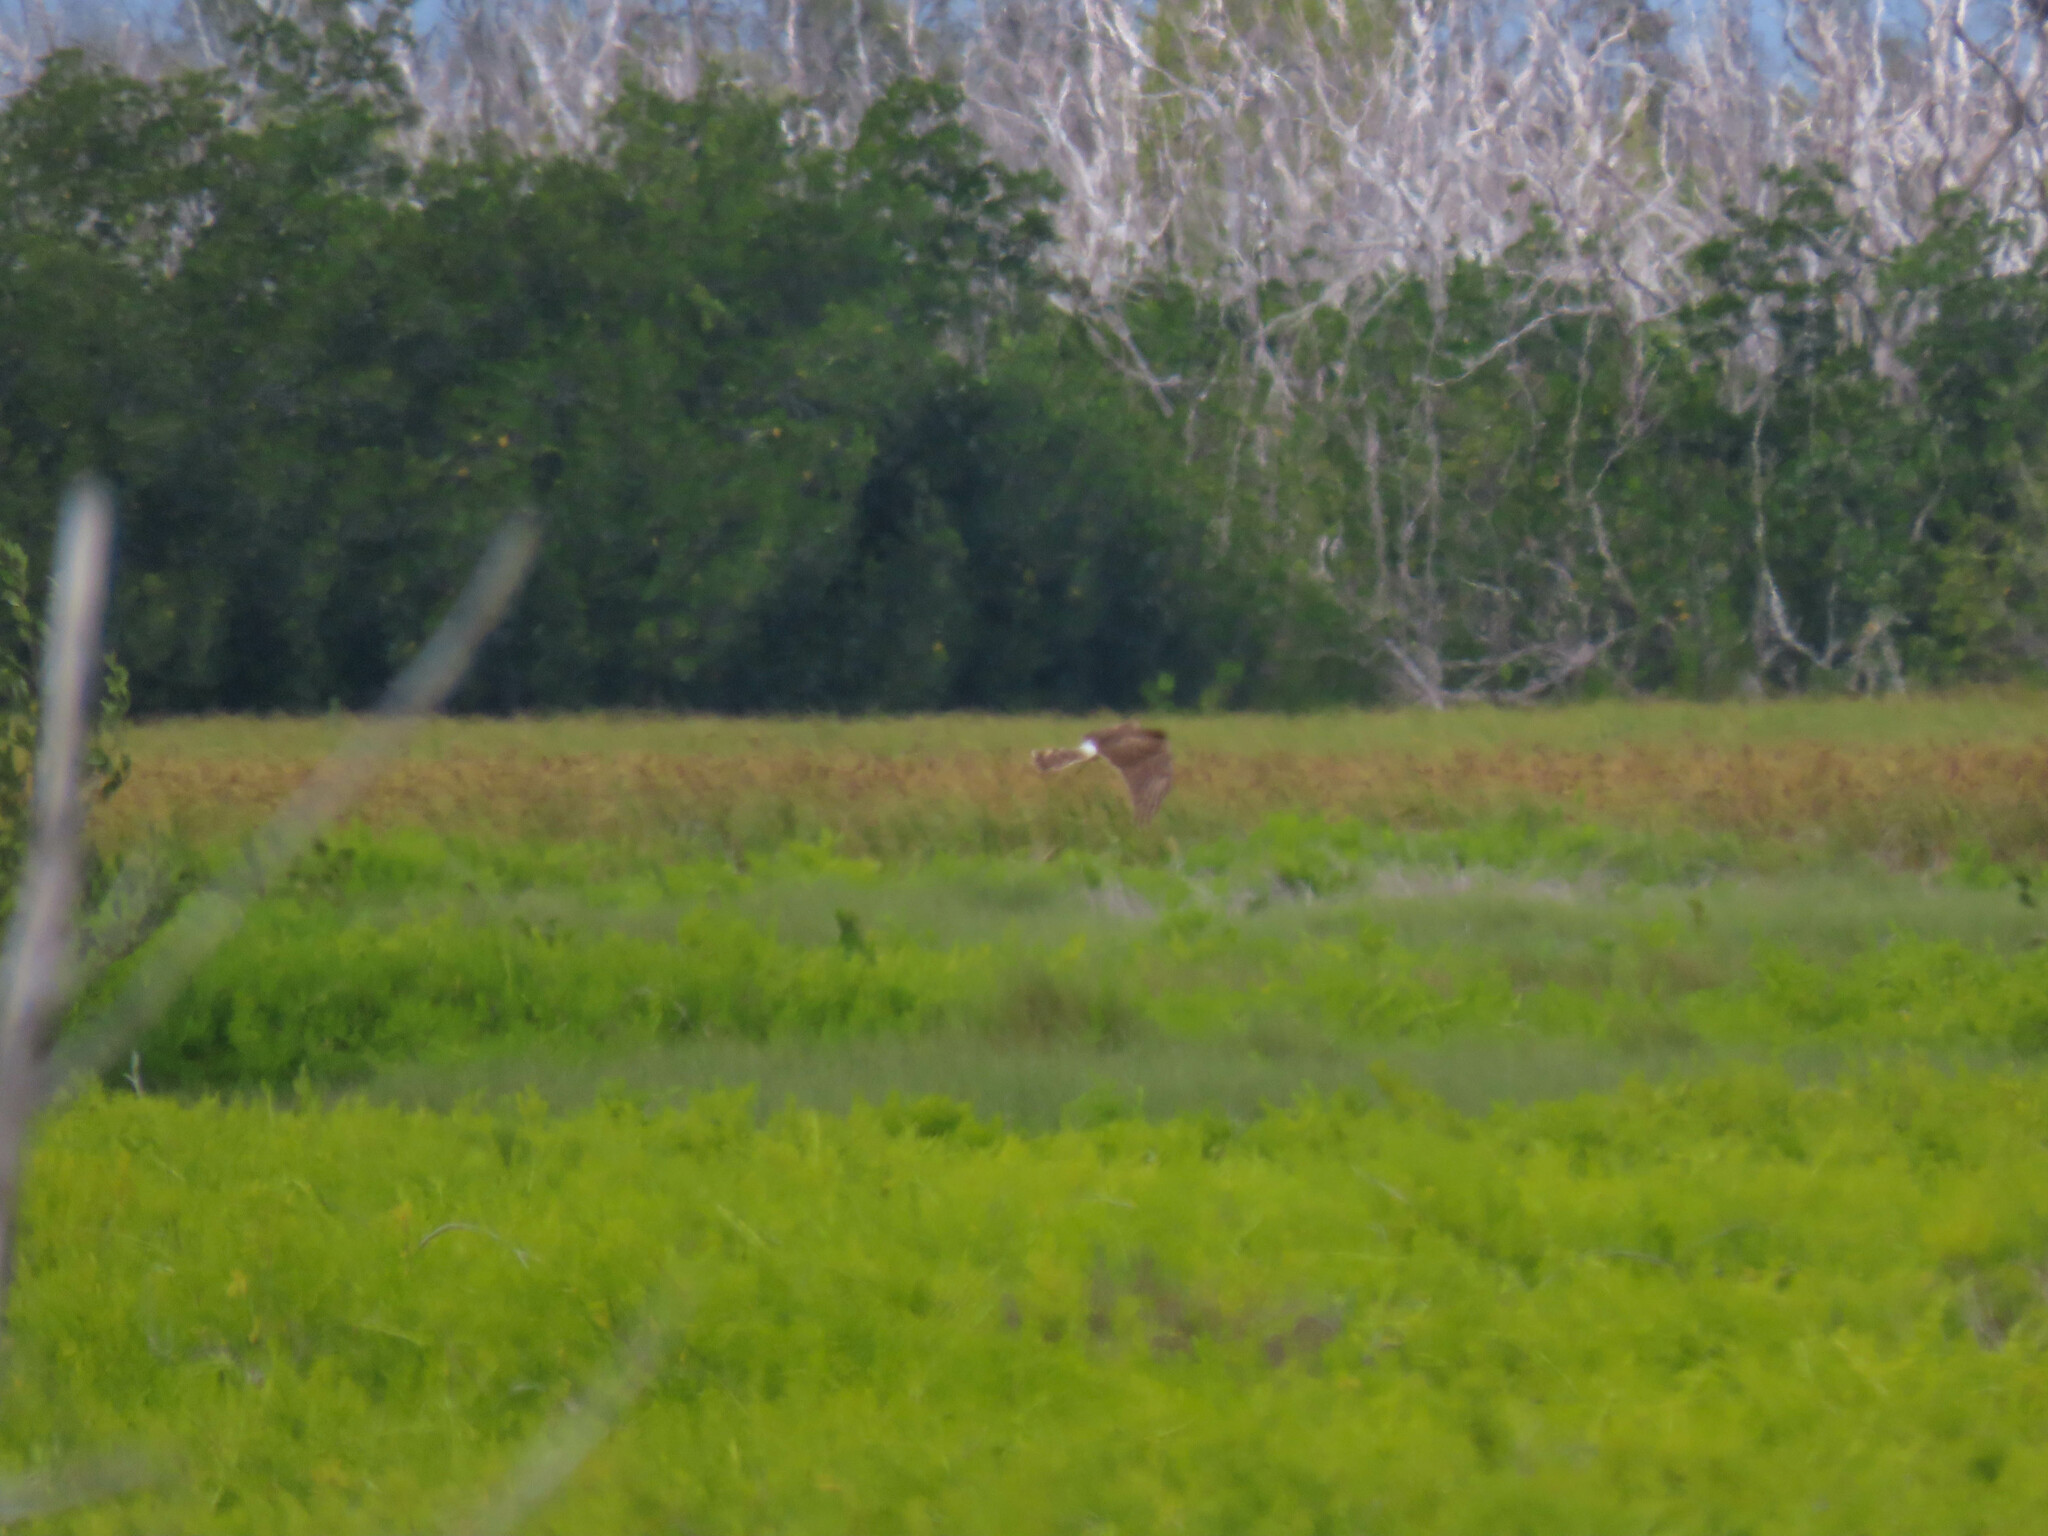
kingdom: Animalia
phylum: Chordata
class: Aves
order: Accipitriformes
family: Accipitridae
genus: Circus
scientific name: Circus cyaneus
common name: Hen harrier
